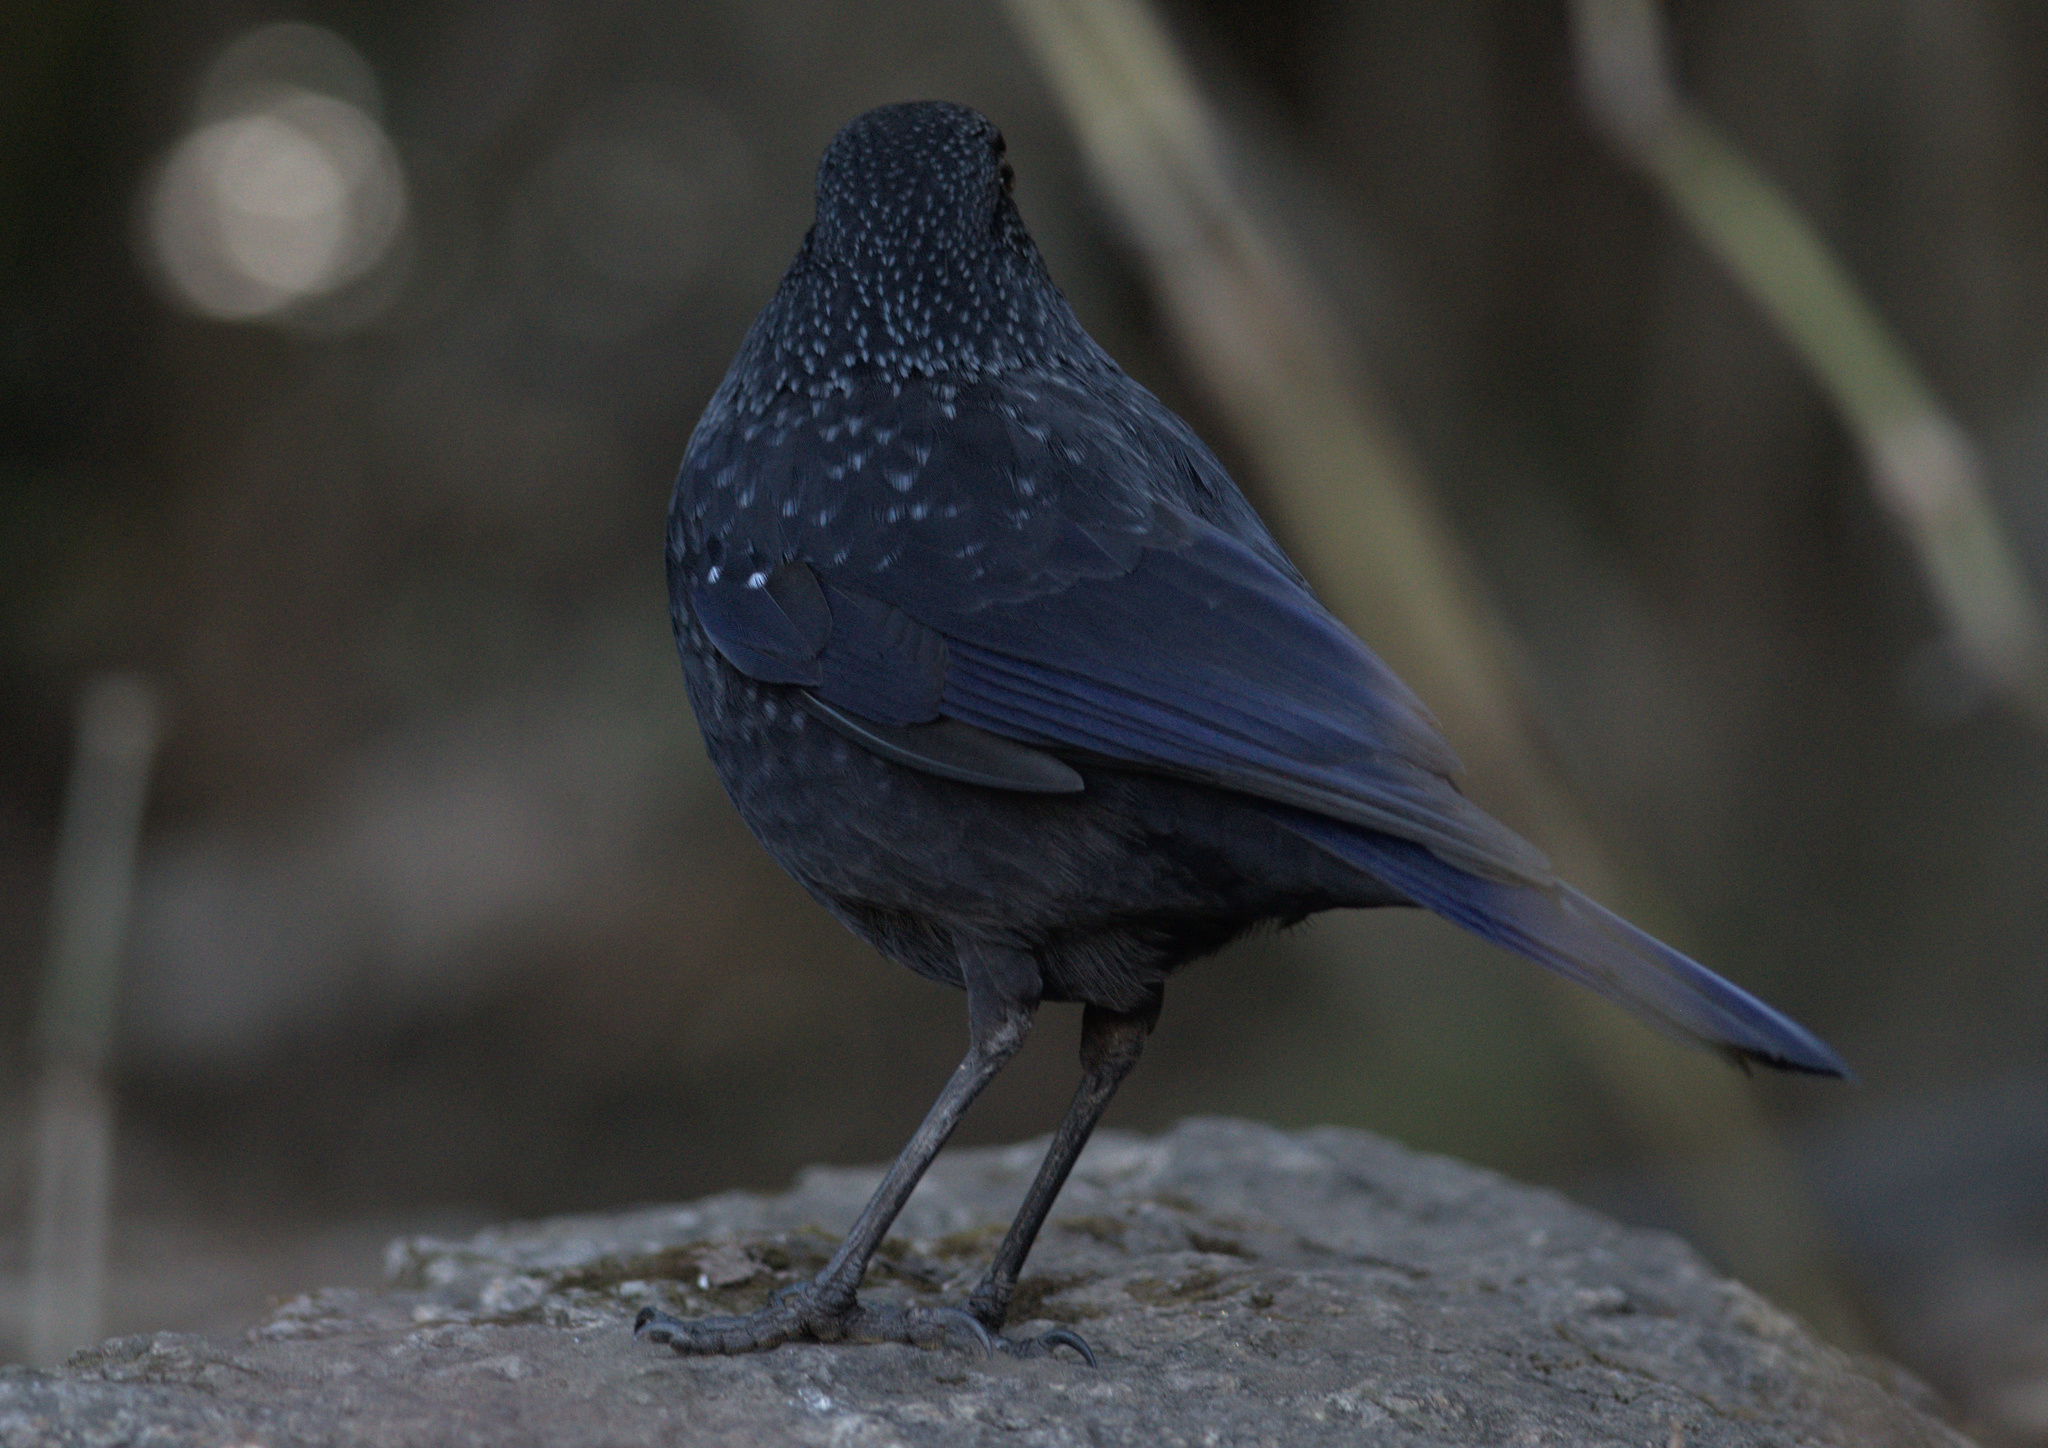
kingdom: Animalia
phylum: Chordata
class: Aves
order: Passeriformes
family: Muscicapidae
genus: Myophonus
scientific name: Myophonus caeruleus
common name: Blue whistling-thrush
